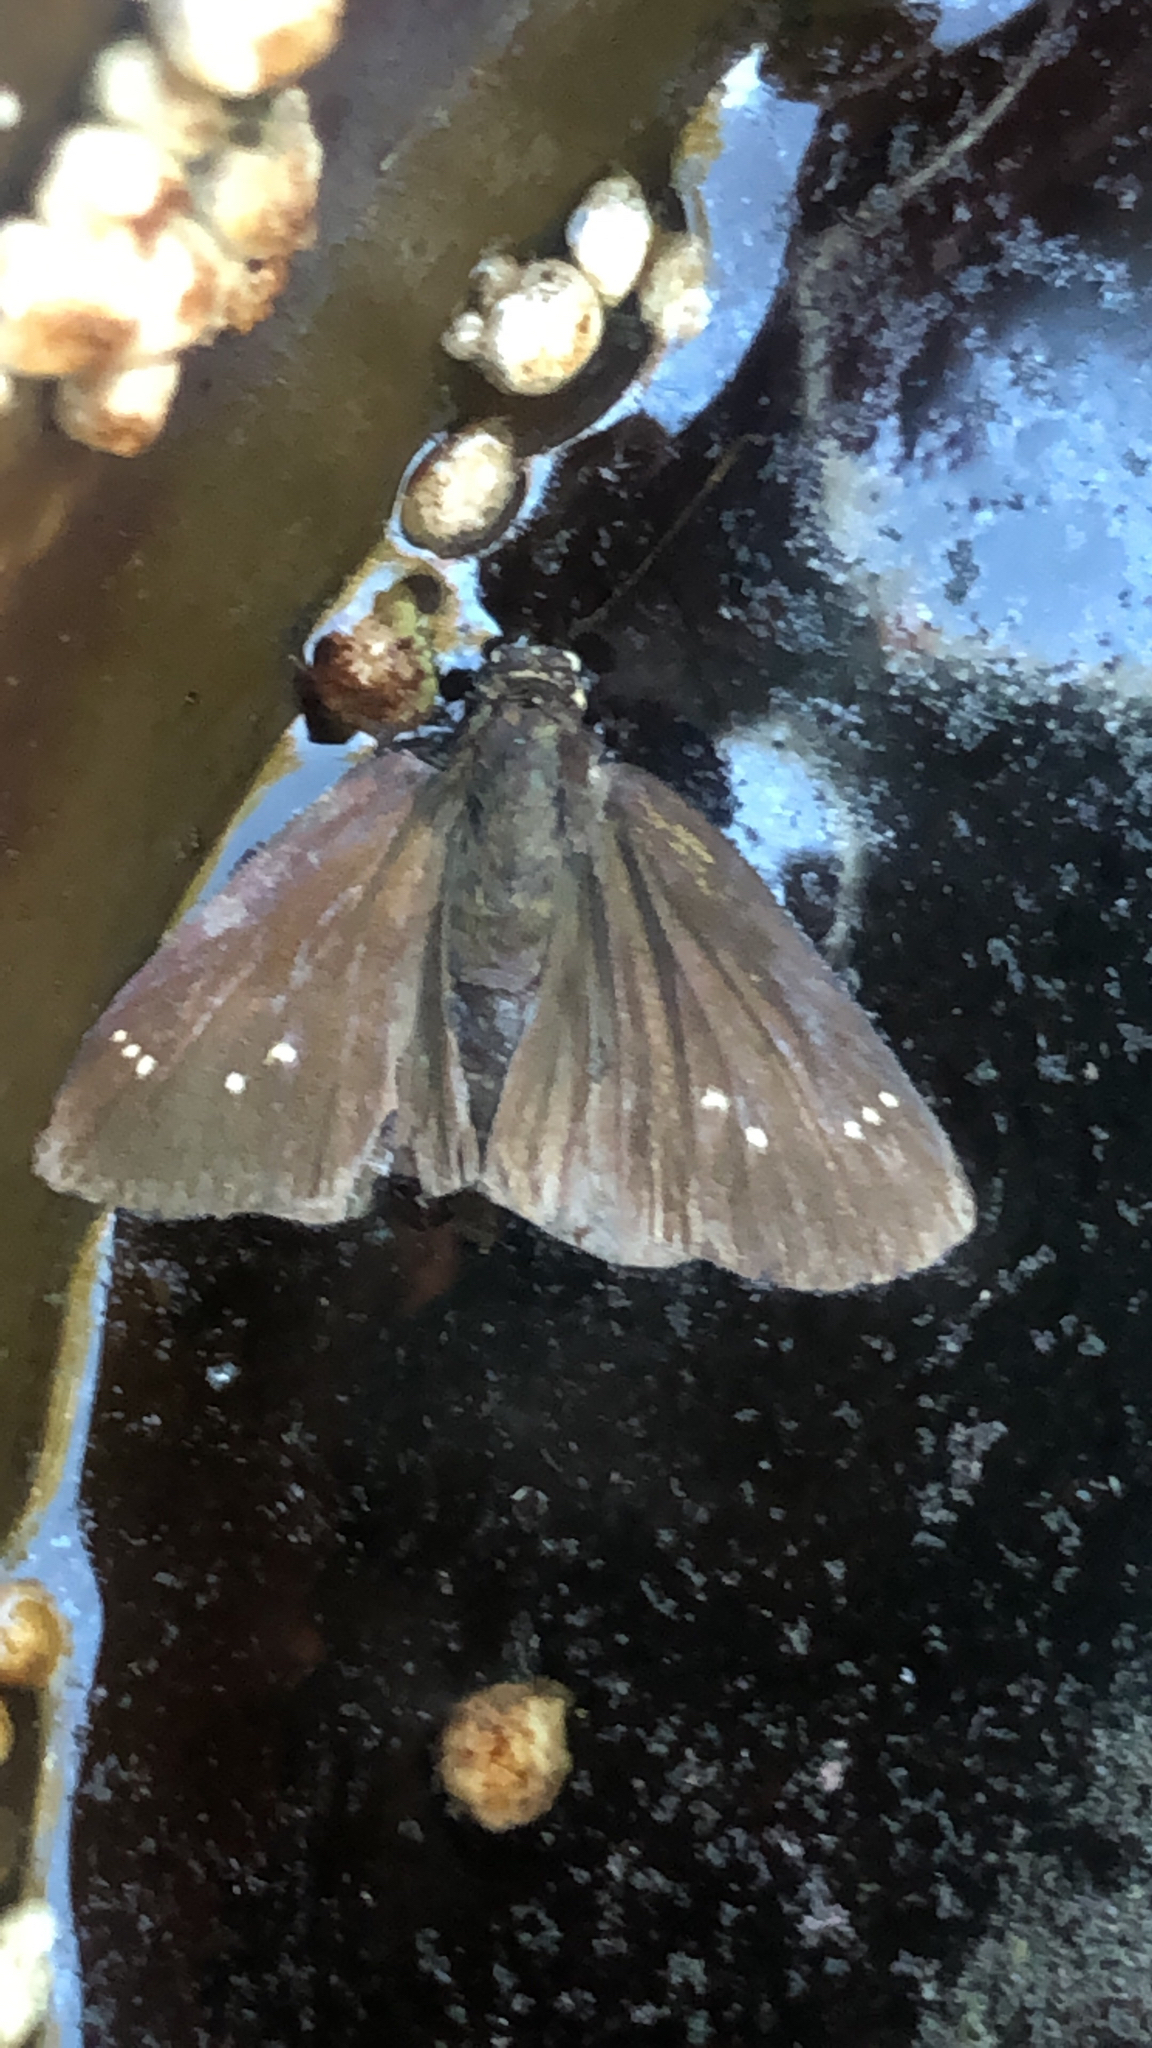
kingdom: Animalia
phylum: Arthropoda
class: Insecta
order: Lepidoptera
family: Hesperiidae
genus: Pholisora
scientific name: Pholisora catullus
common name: Common sootywing
